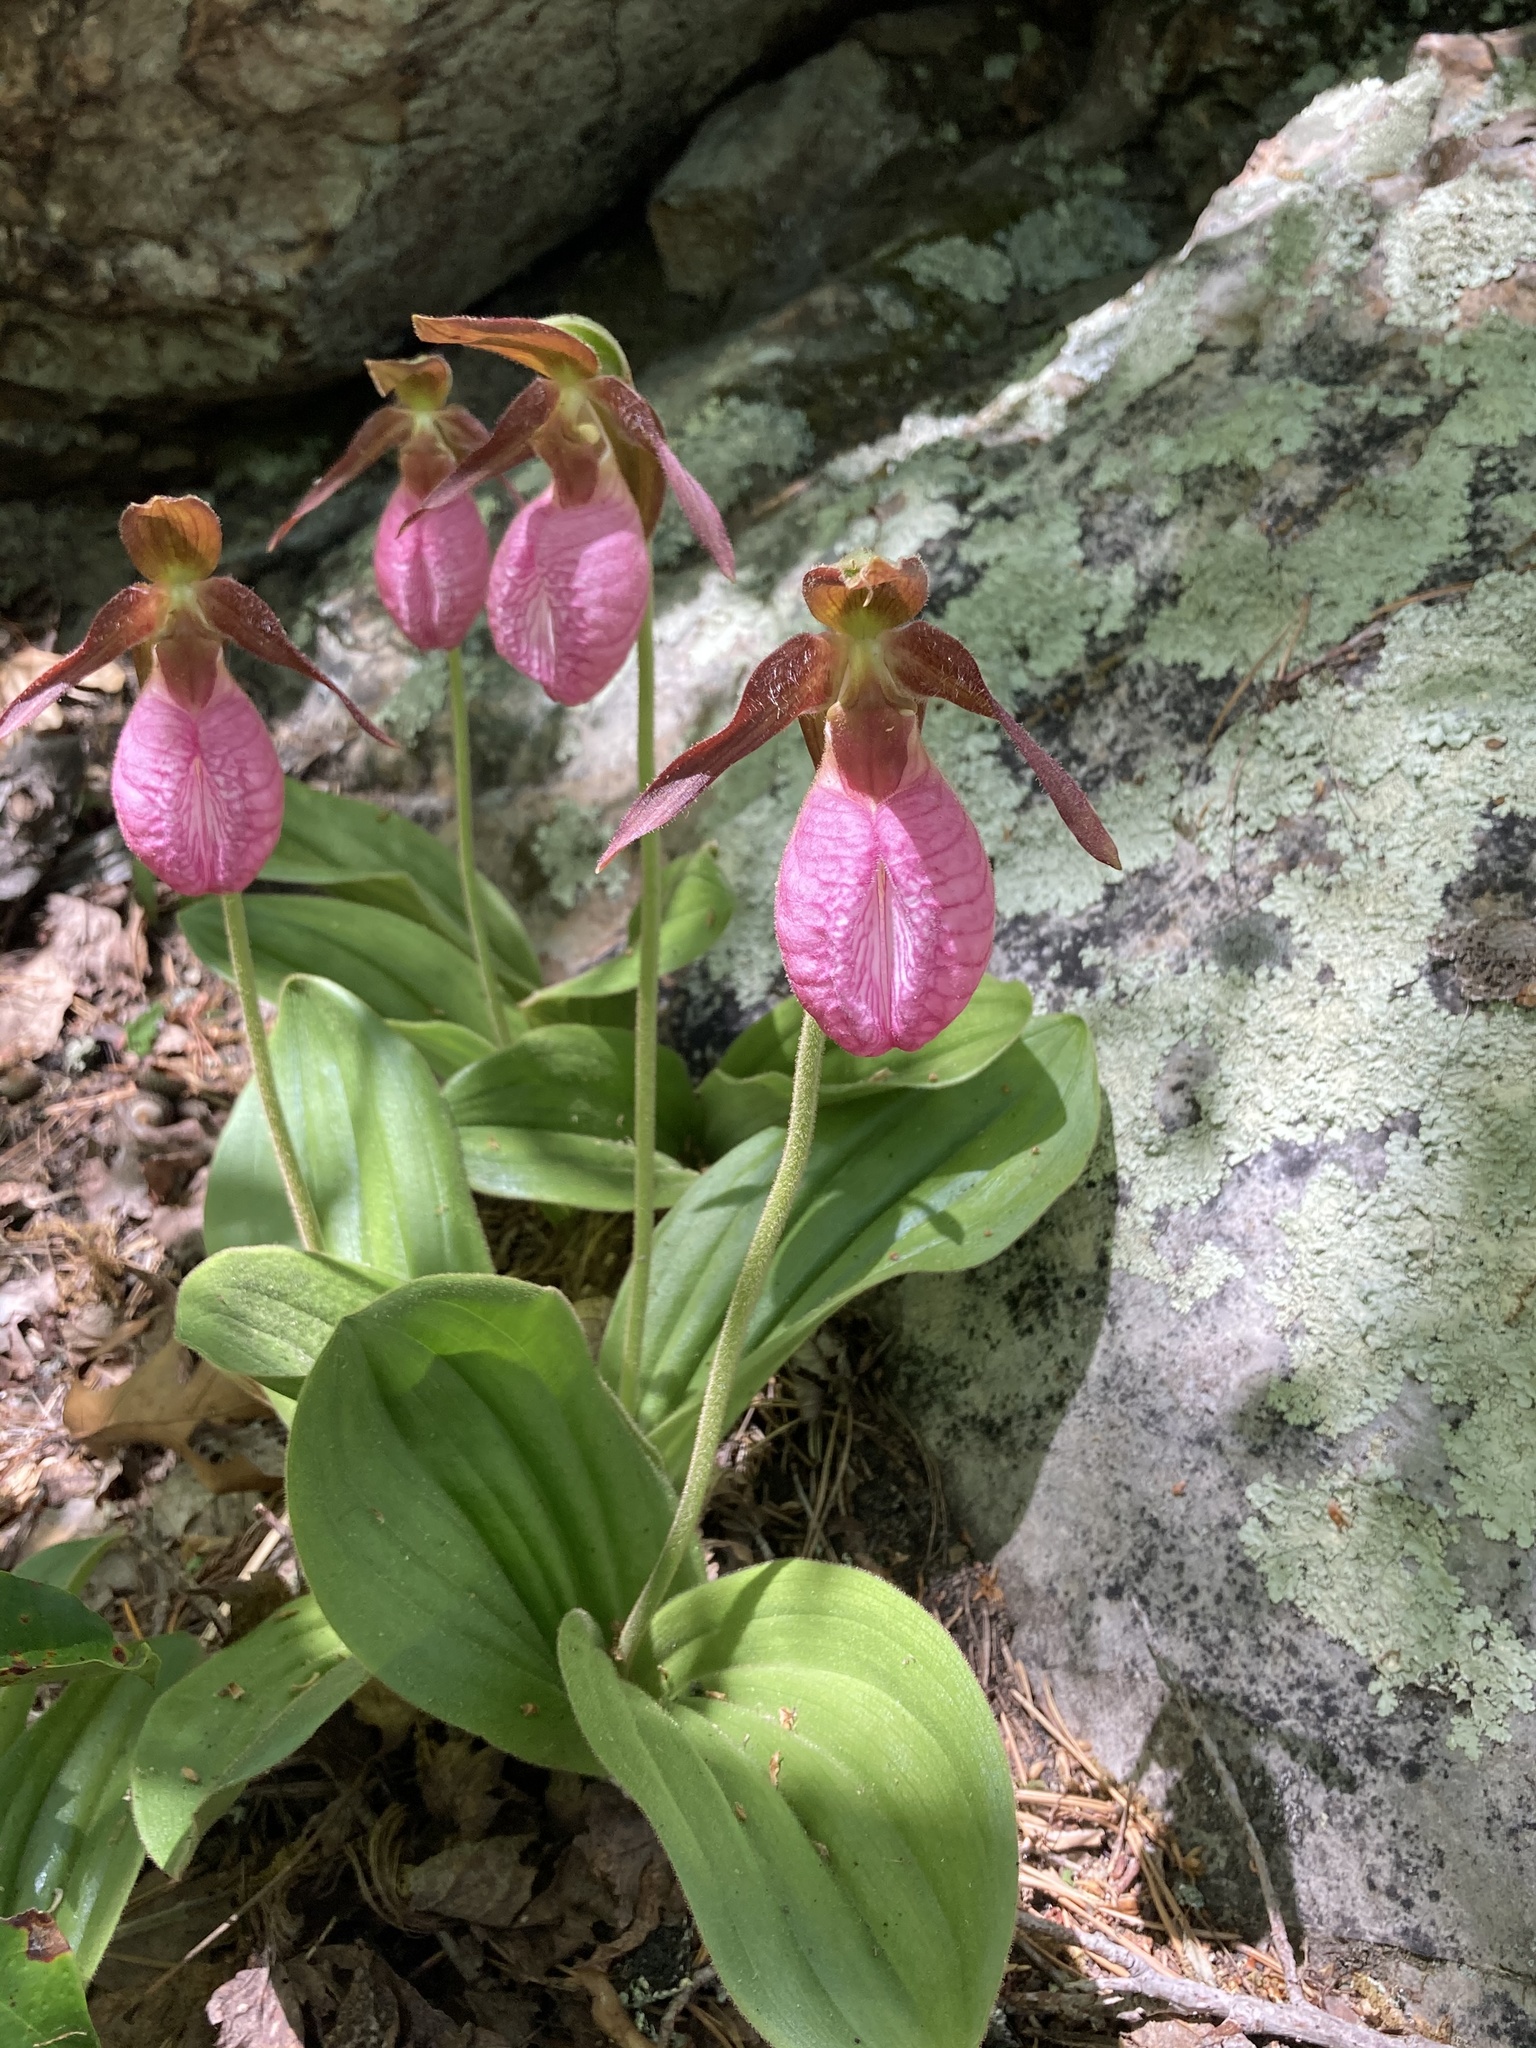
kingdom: Plantae
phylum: Tracheophyta
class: Liliopsida
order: Asparagales
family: Orchidaceae
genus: Cypripedium
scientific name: Cypripedium acaule
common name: Pink lady's-slipper
